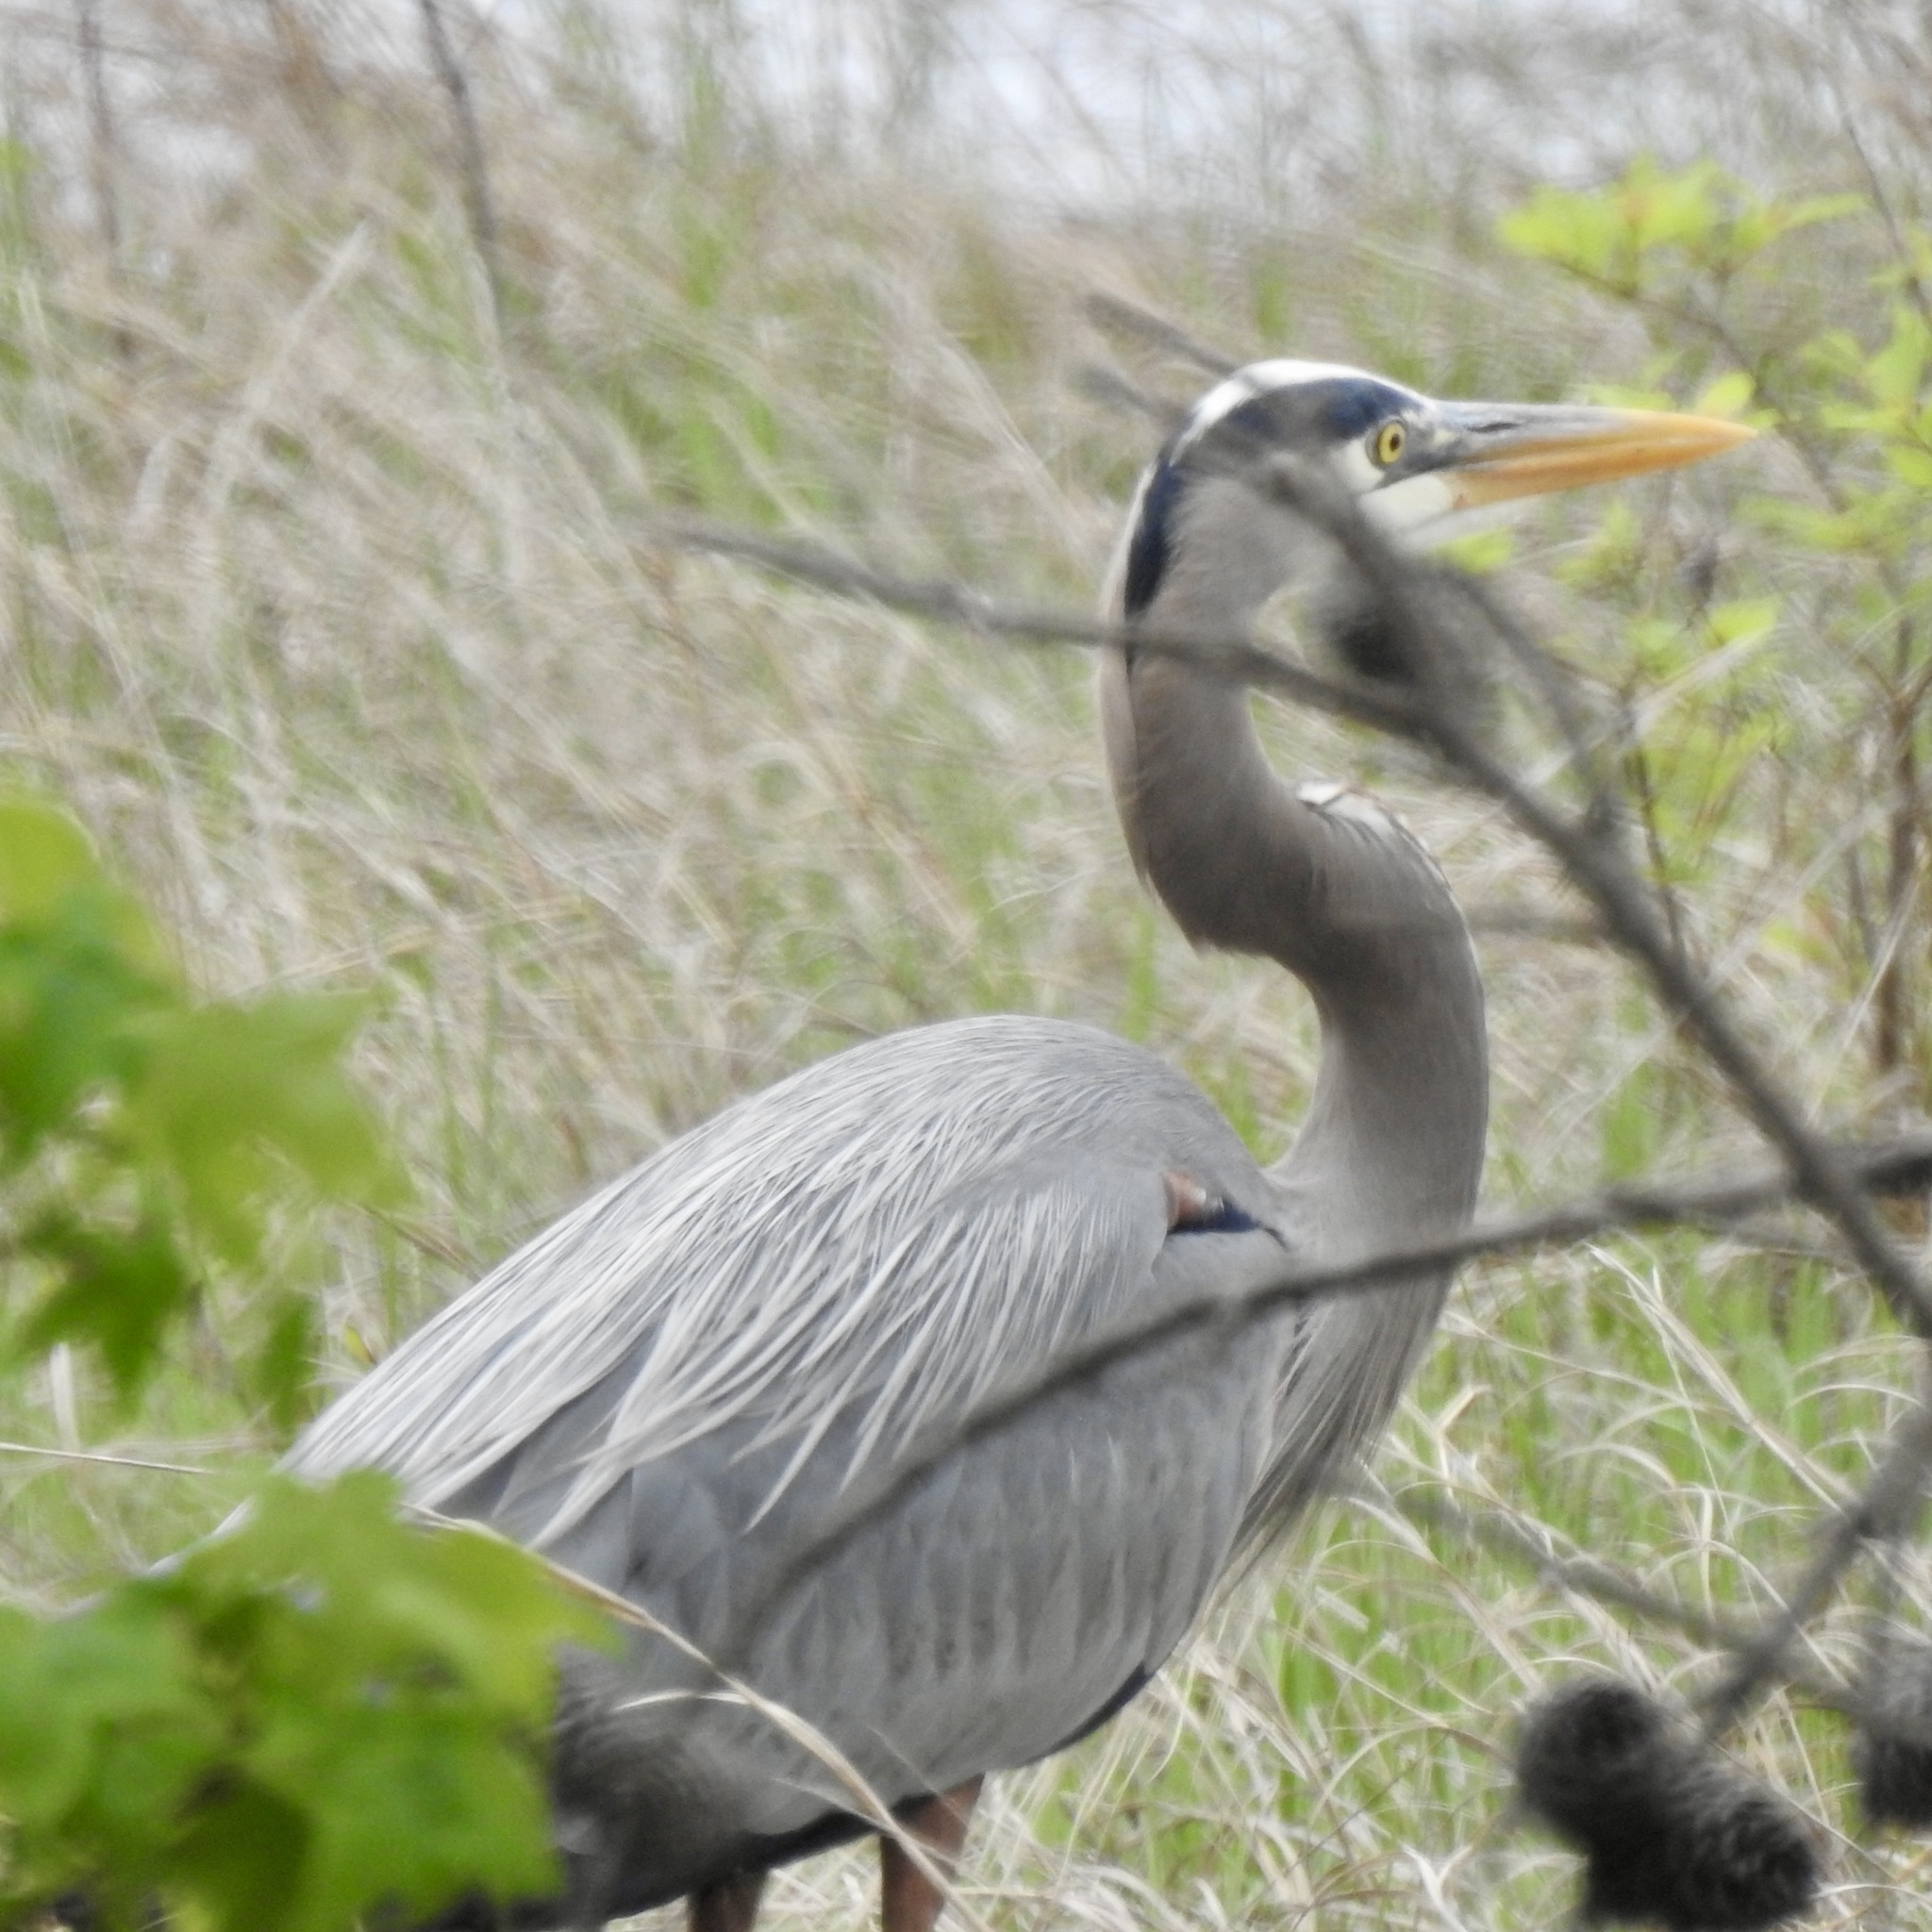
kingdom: Animalia
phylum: Chordata
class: Aves
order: Pelecaniformes
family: Ardeidae
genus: Ardea
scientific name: Ardea herodias
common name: Great blue heron
